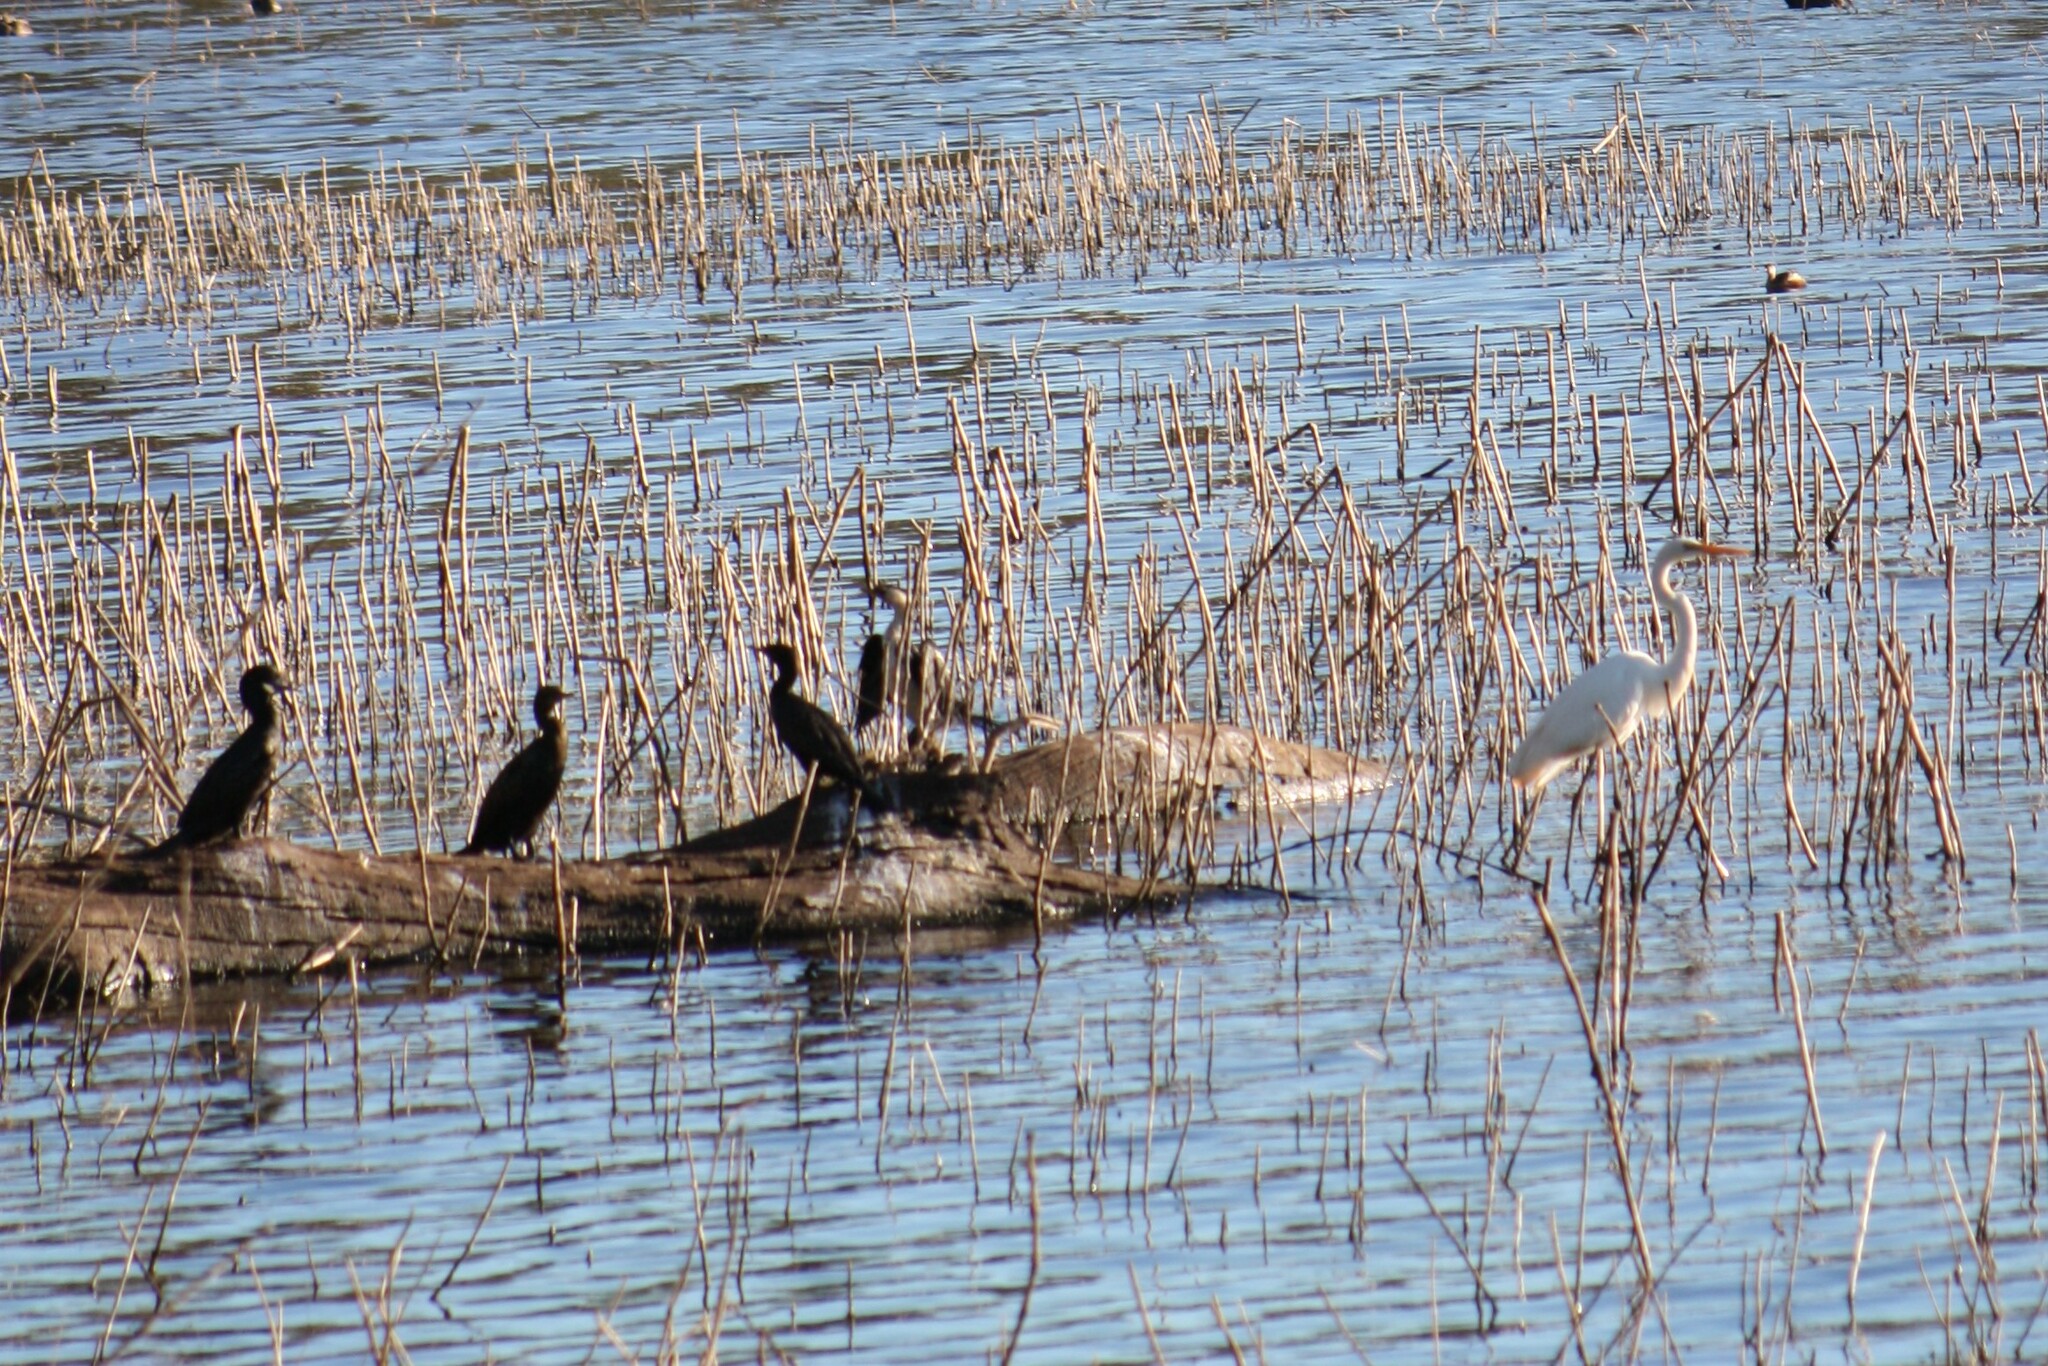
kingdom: Animalia
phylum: Chordata
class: Aves
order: Suliformes
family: Phalacrocoracidae
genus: Phalacrocorax
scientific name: Phalacrocorax sulcirostris
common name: Little black cormorant
